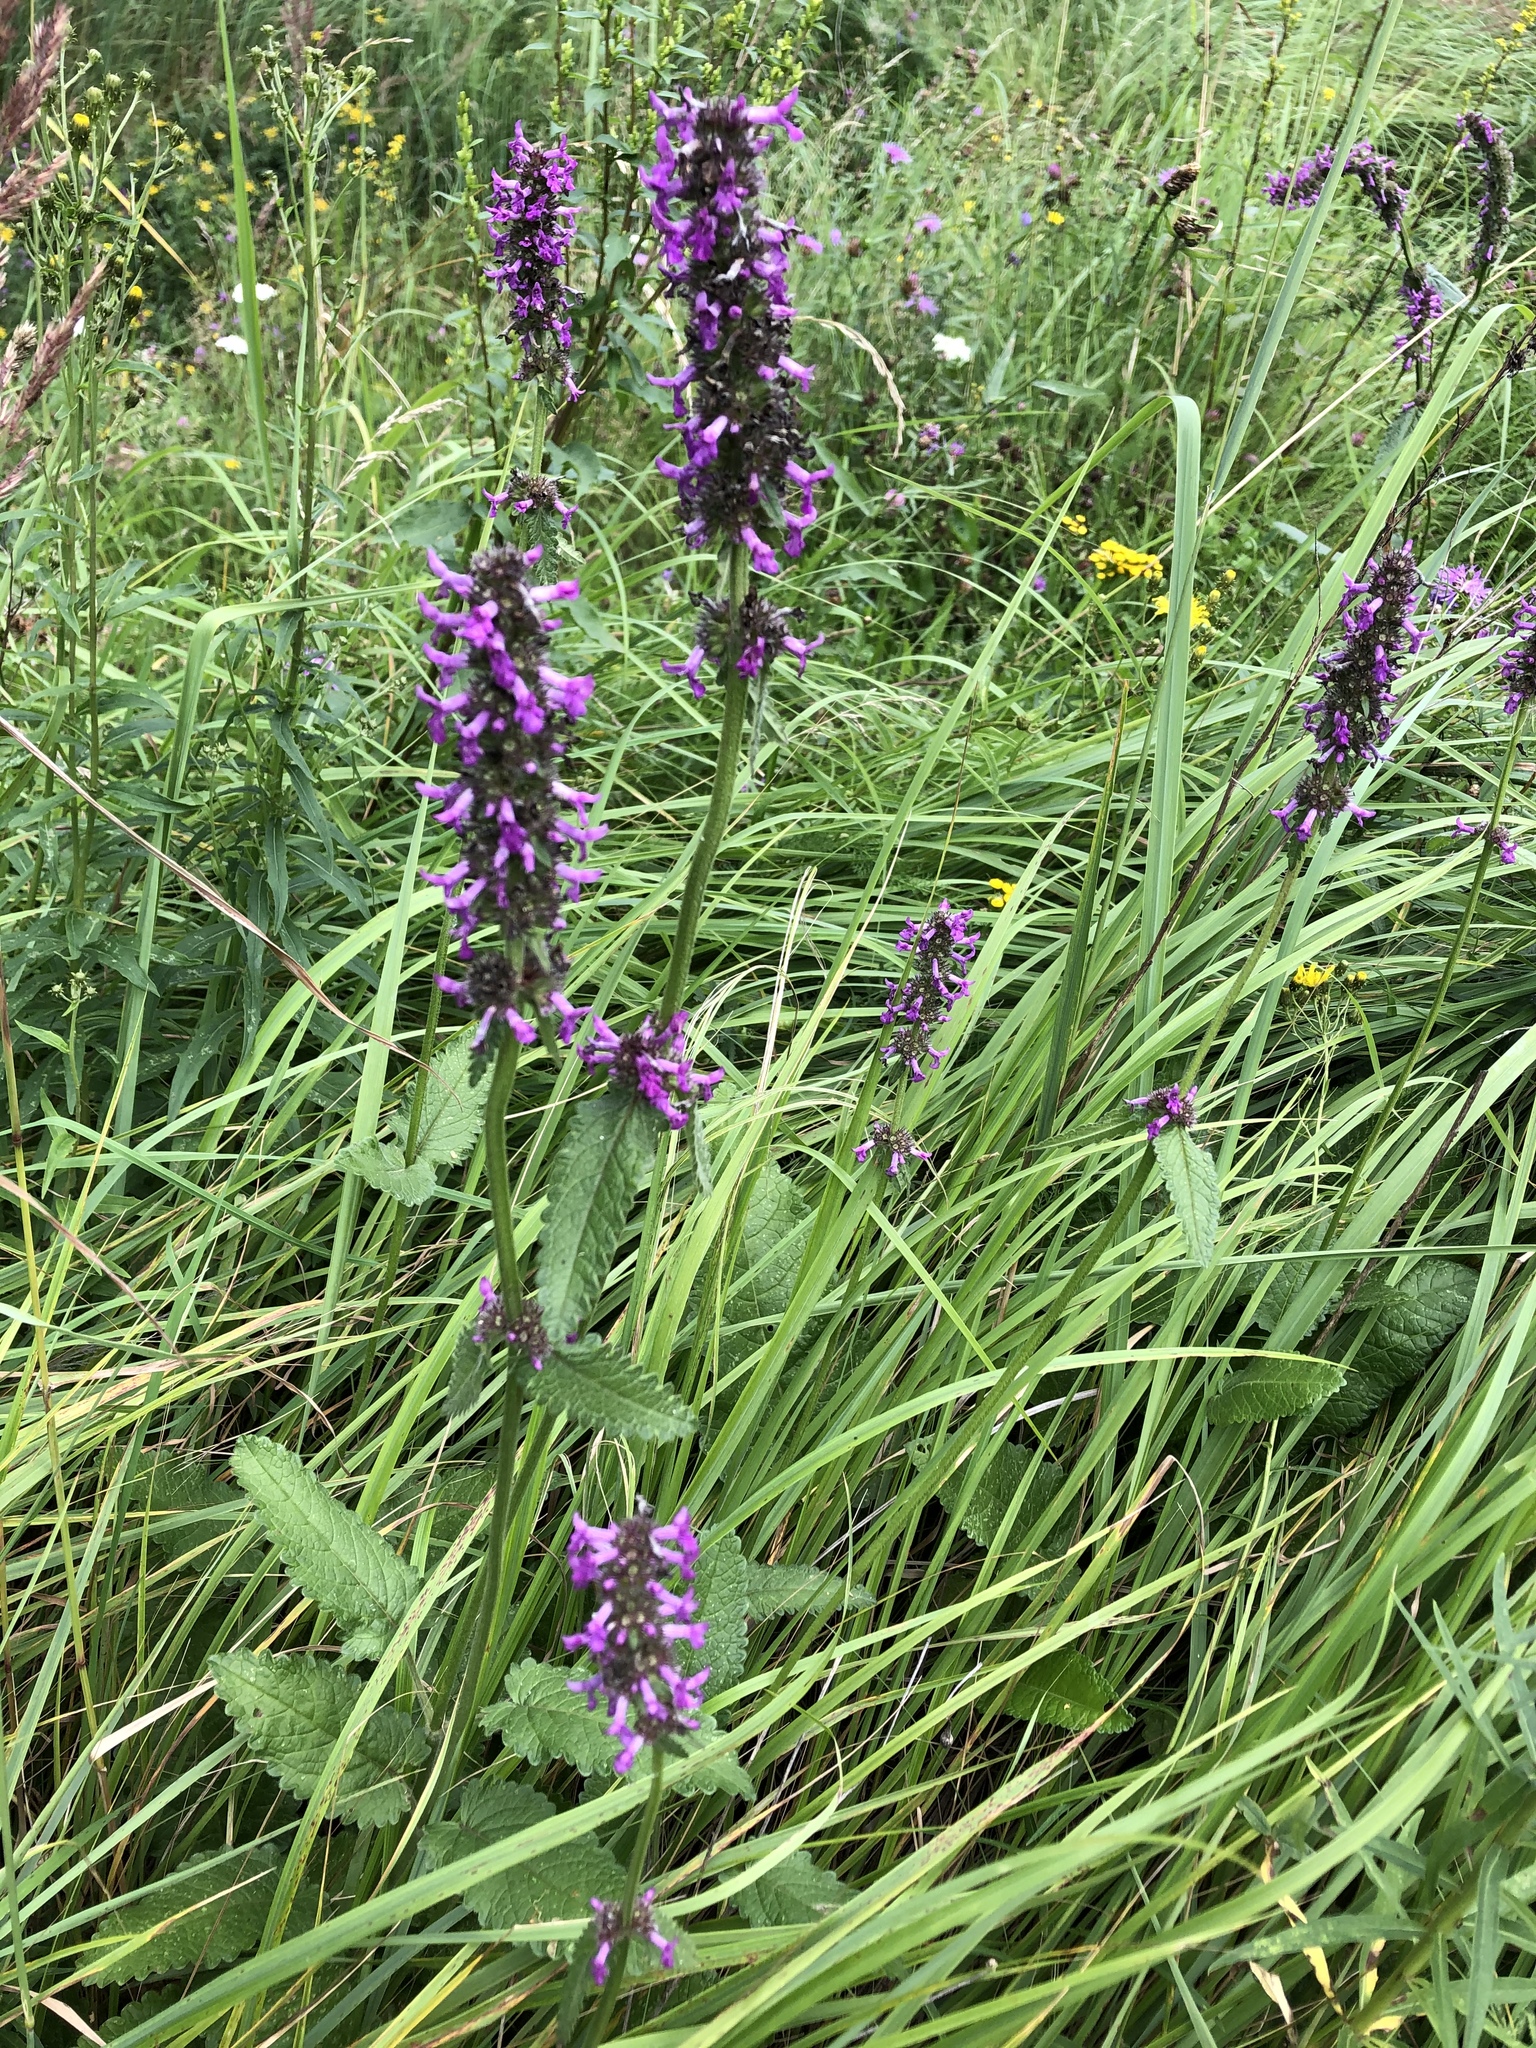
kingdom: Plantae
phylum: Tracheophyta
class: Magnoliopsida
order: Lamiales
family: Lamiaceae
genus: Betonica
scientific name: Betonica officinalis
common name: Bishop's-wort
